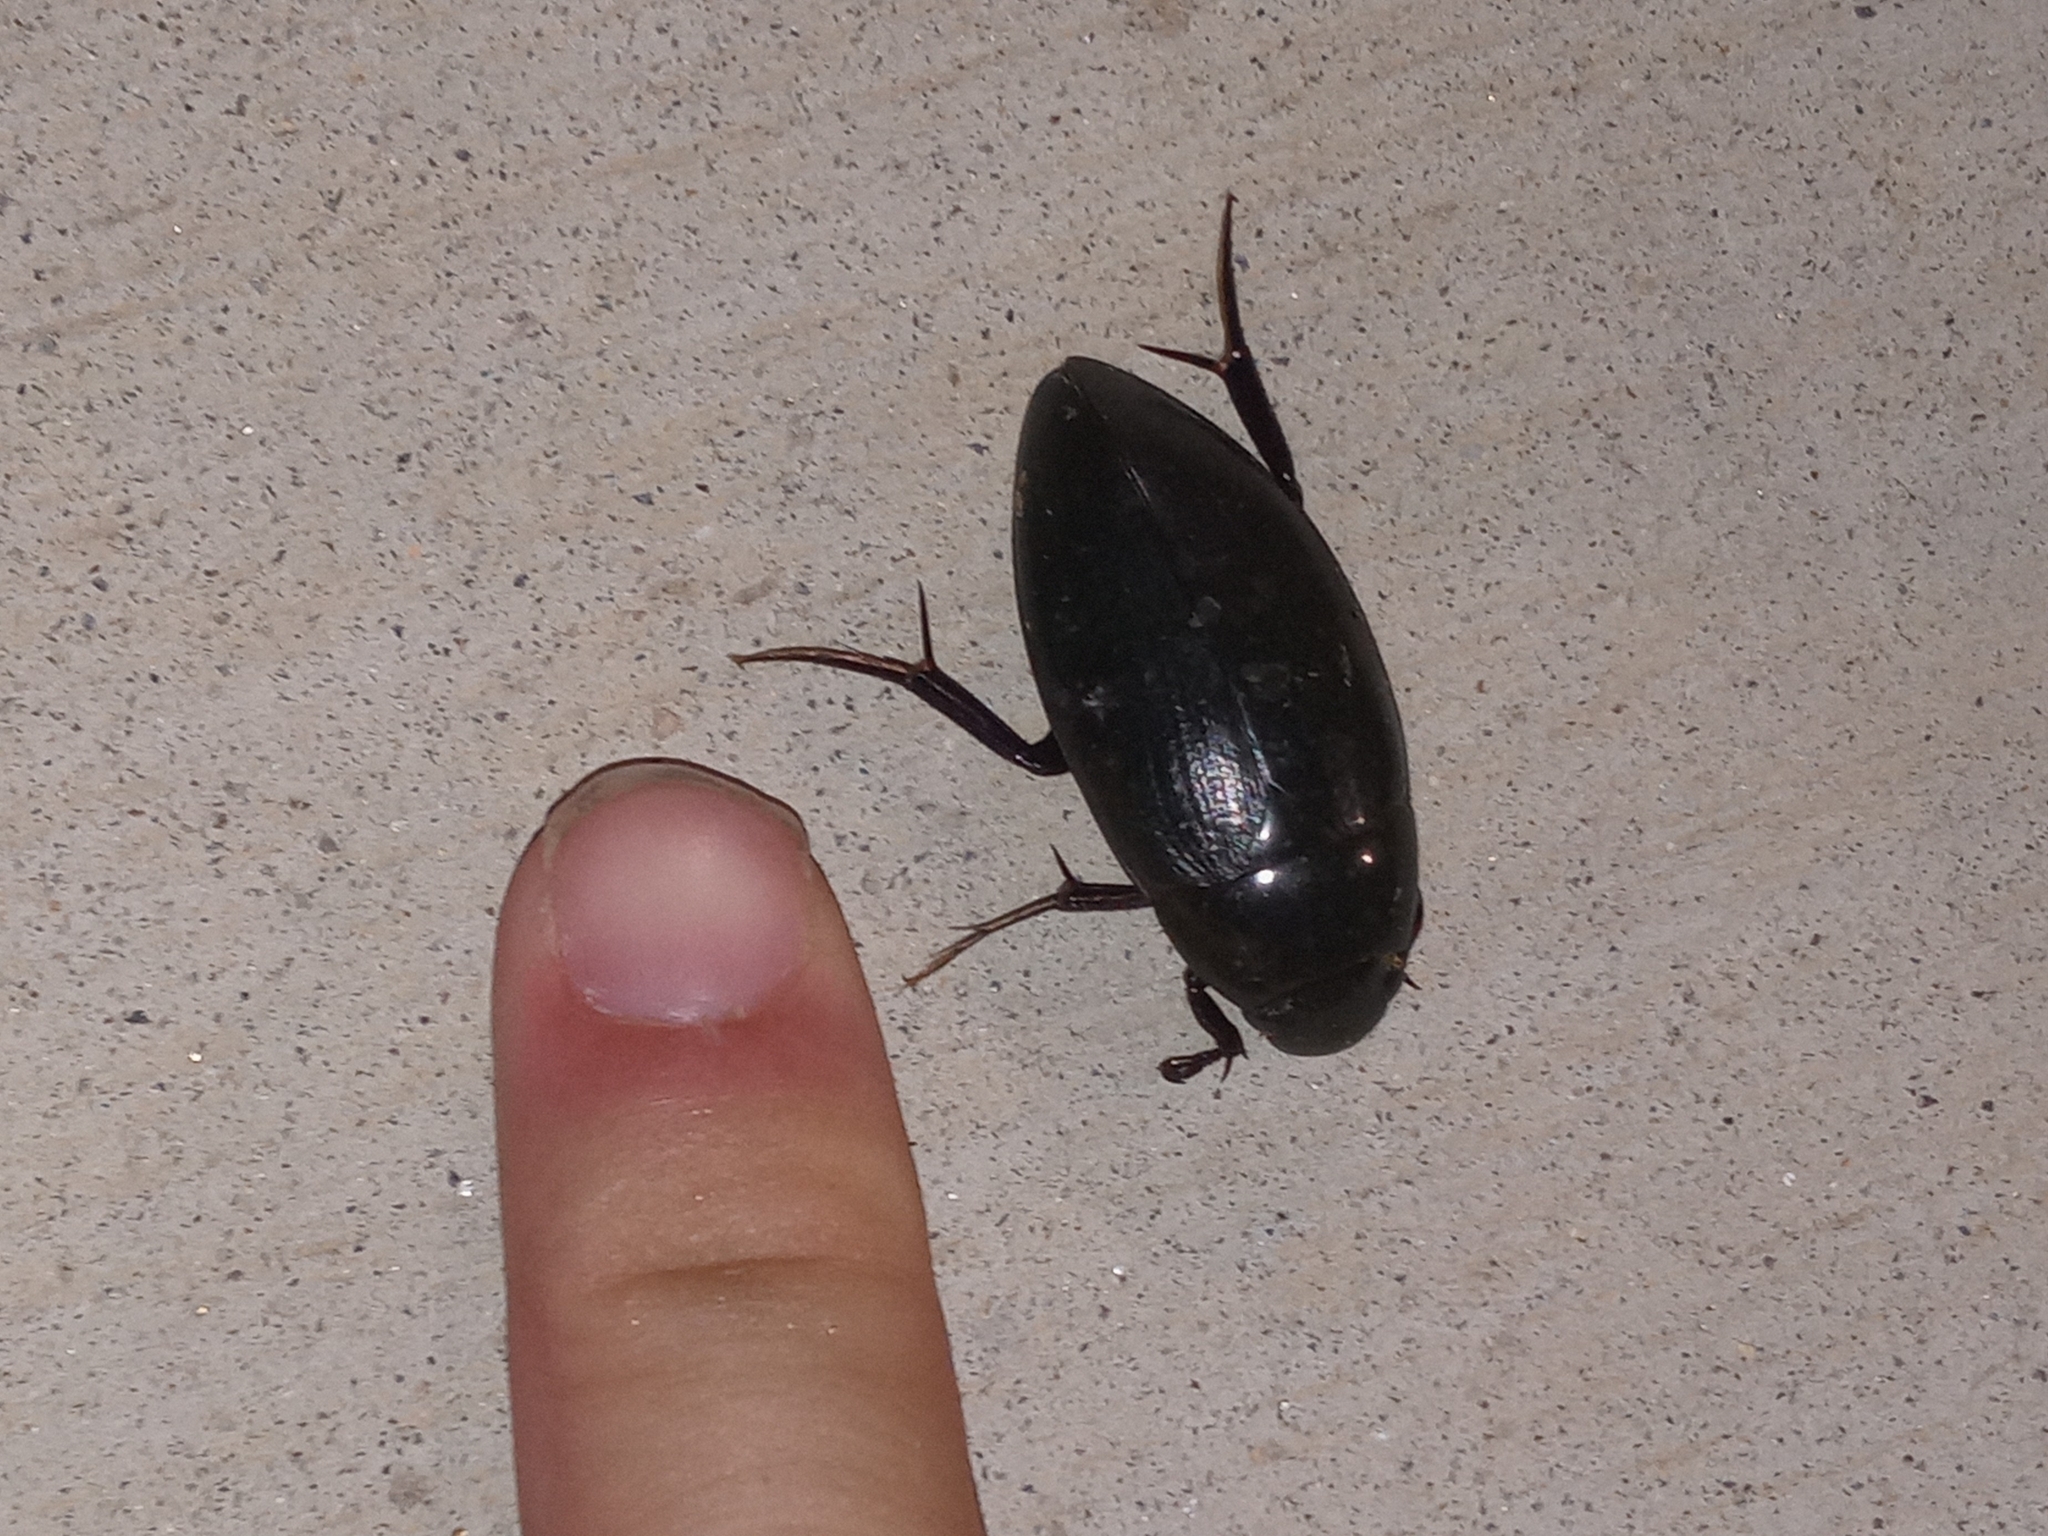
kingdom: Animalia
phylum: Arthropoda
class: Insecta
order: Coleoptera
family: Hydrophilidae
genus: Hydrophilus
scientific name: Hydrophilus triangularis
